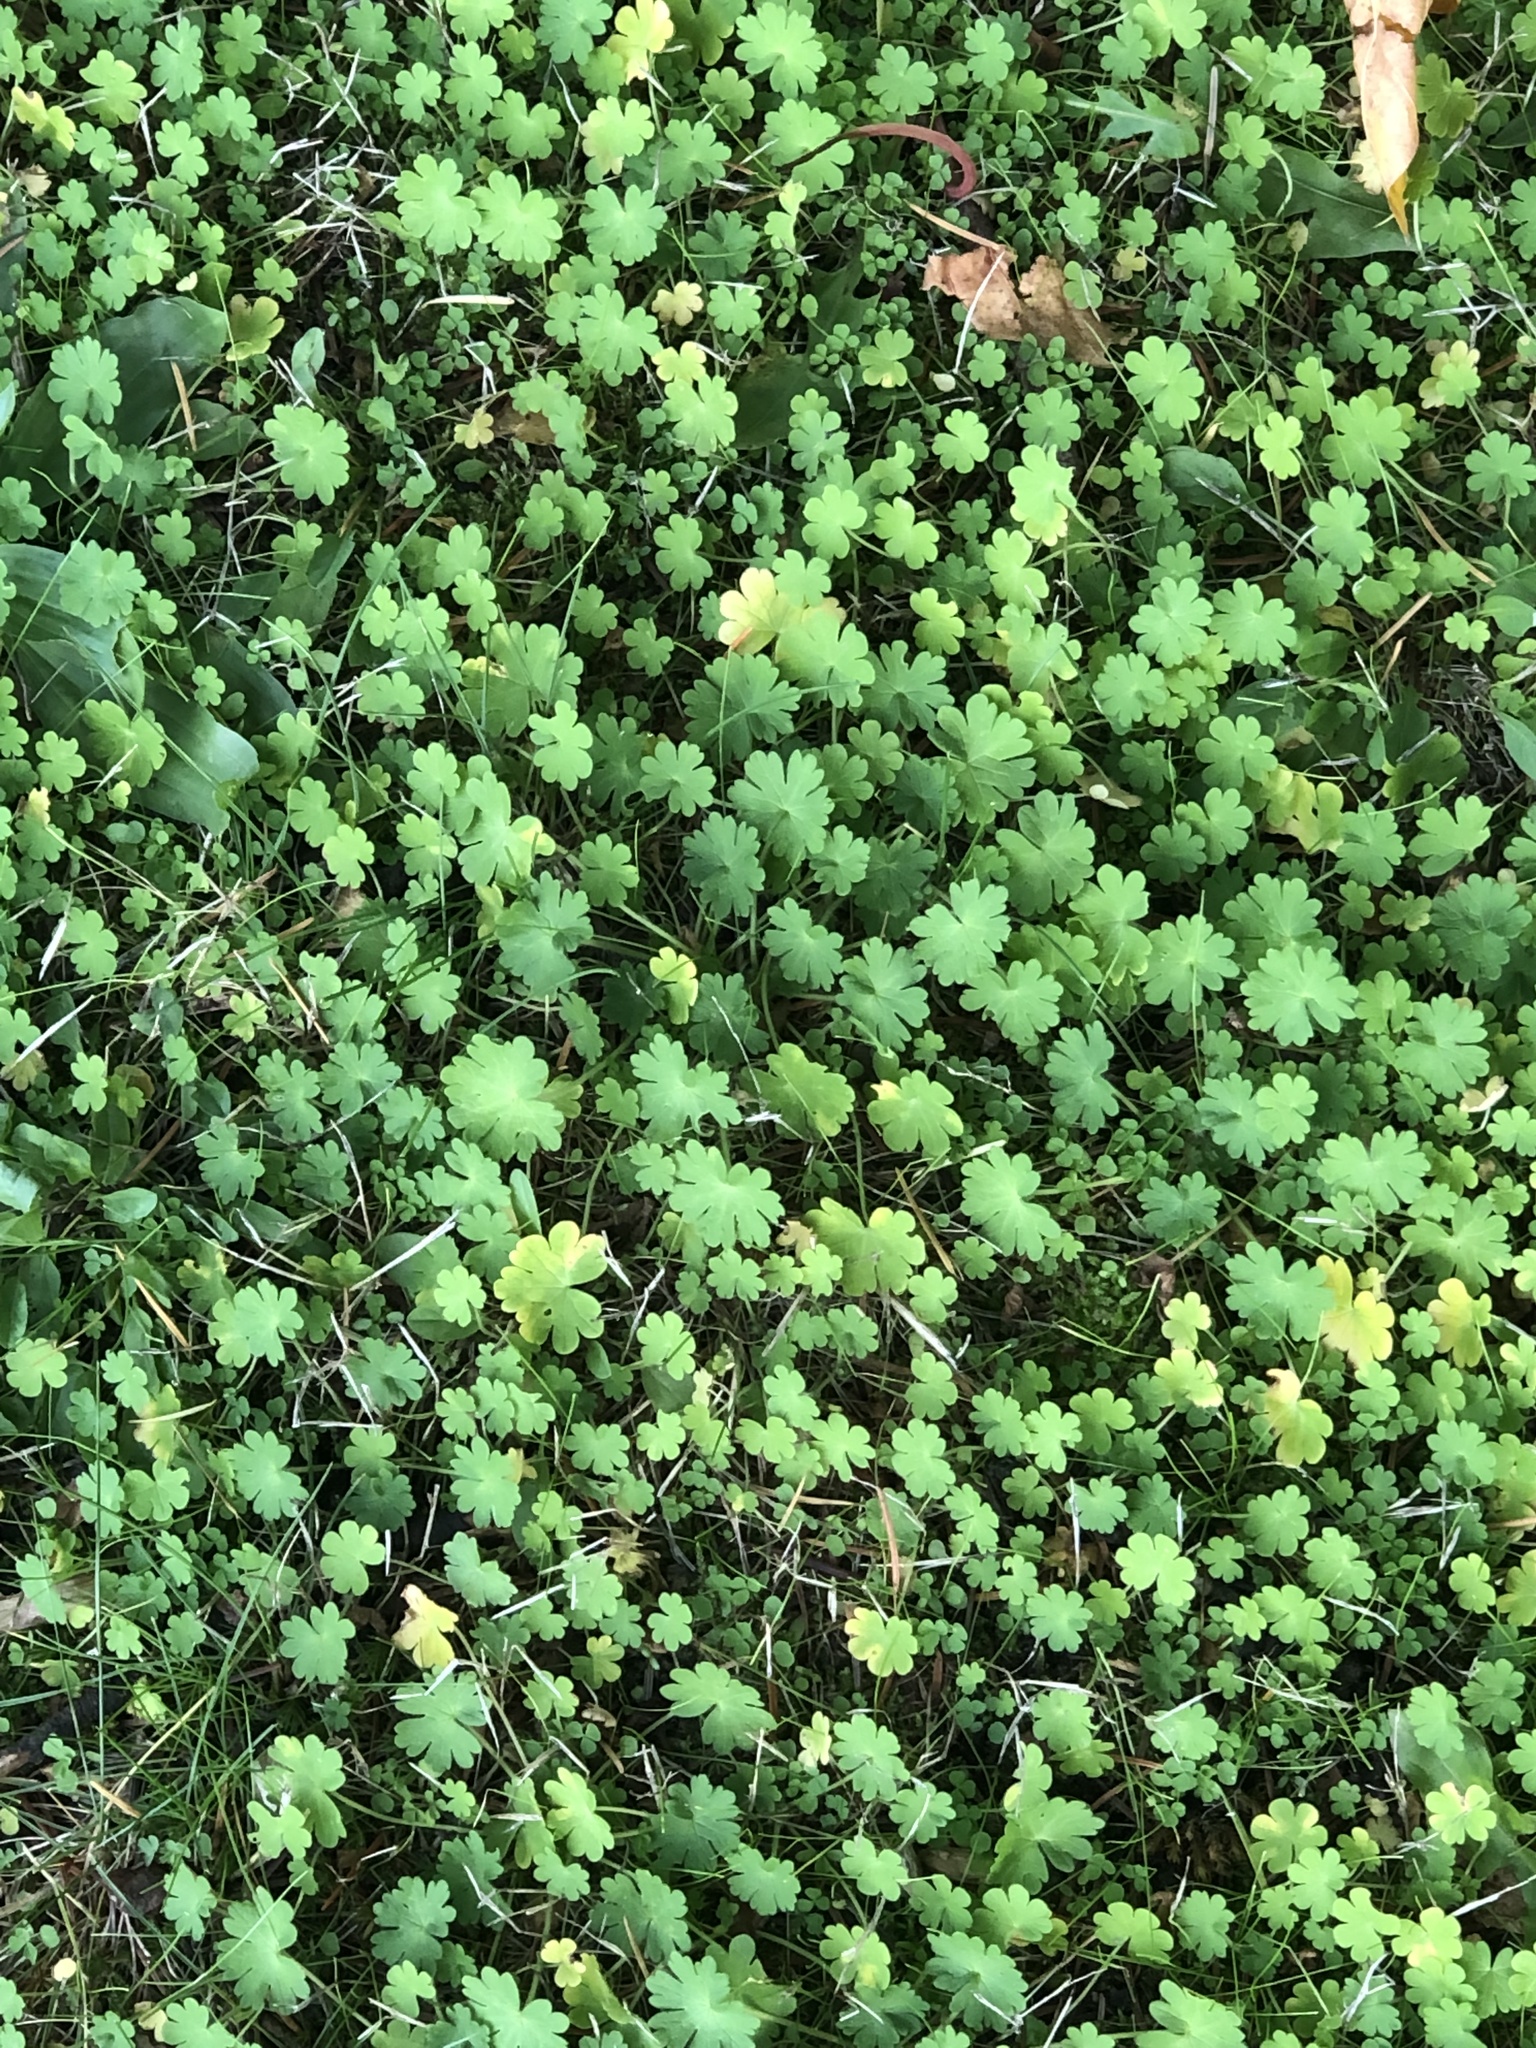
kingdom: Plantae
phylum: Tracheophyta
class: Magnoliopsida
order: Geraniales
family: Geraniaceae
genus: Geranium
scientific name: Geranium molle
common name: Dove's-foot crane's-bill
